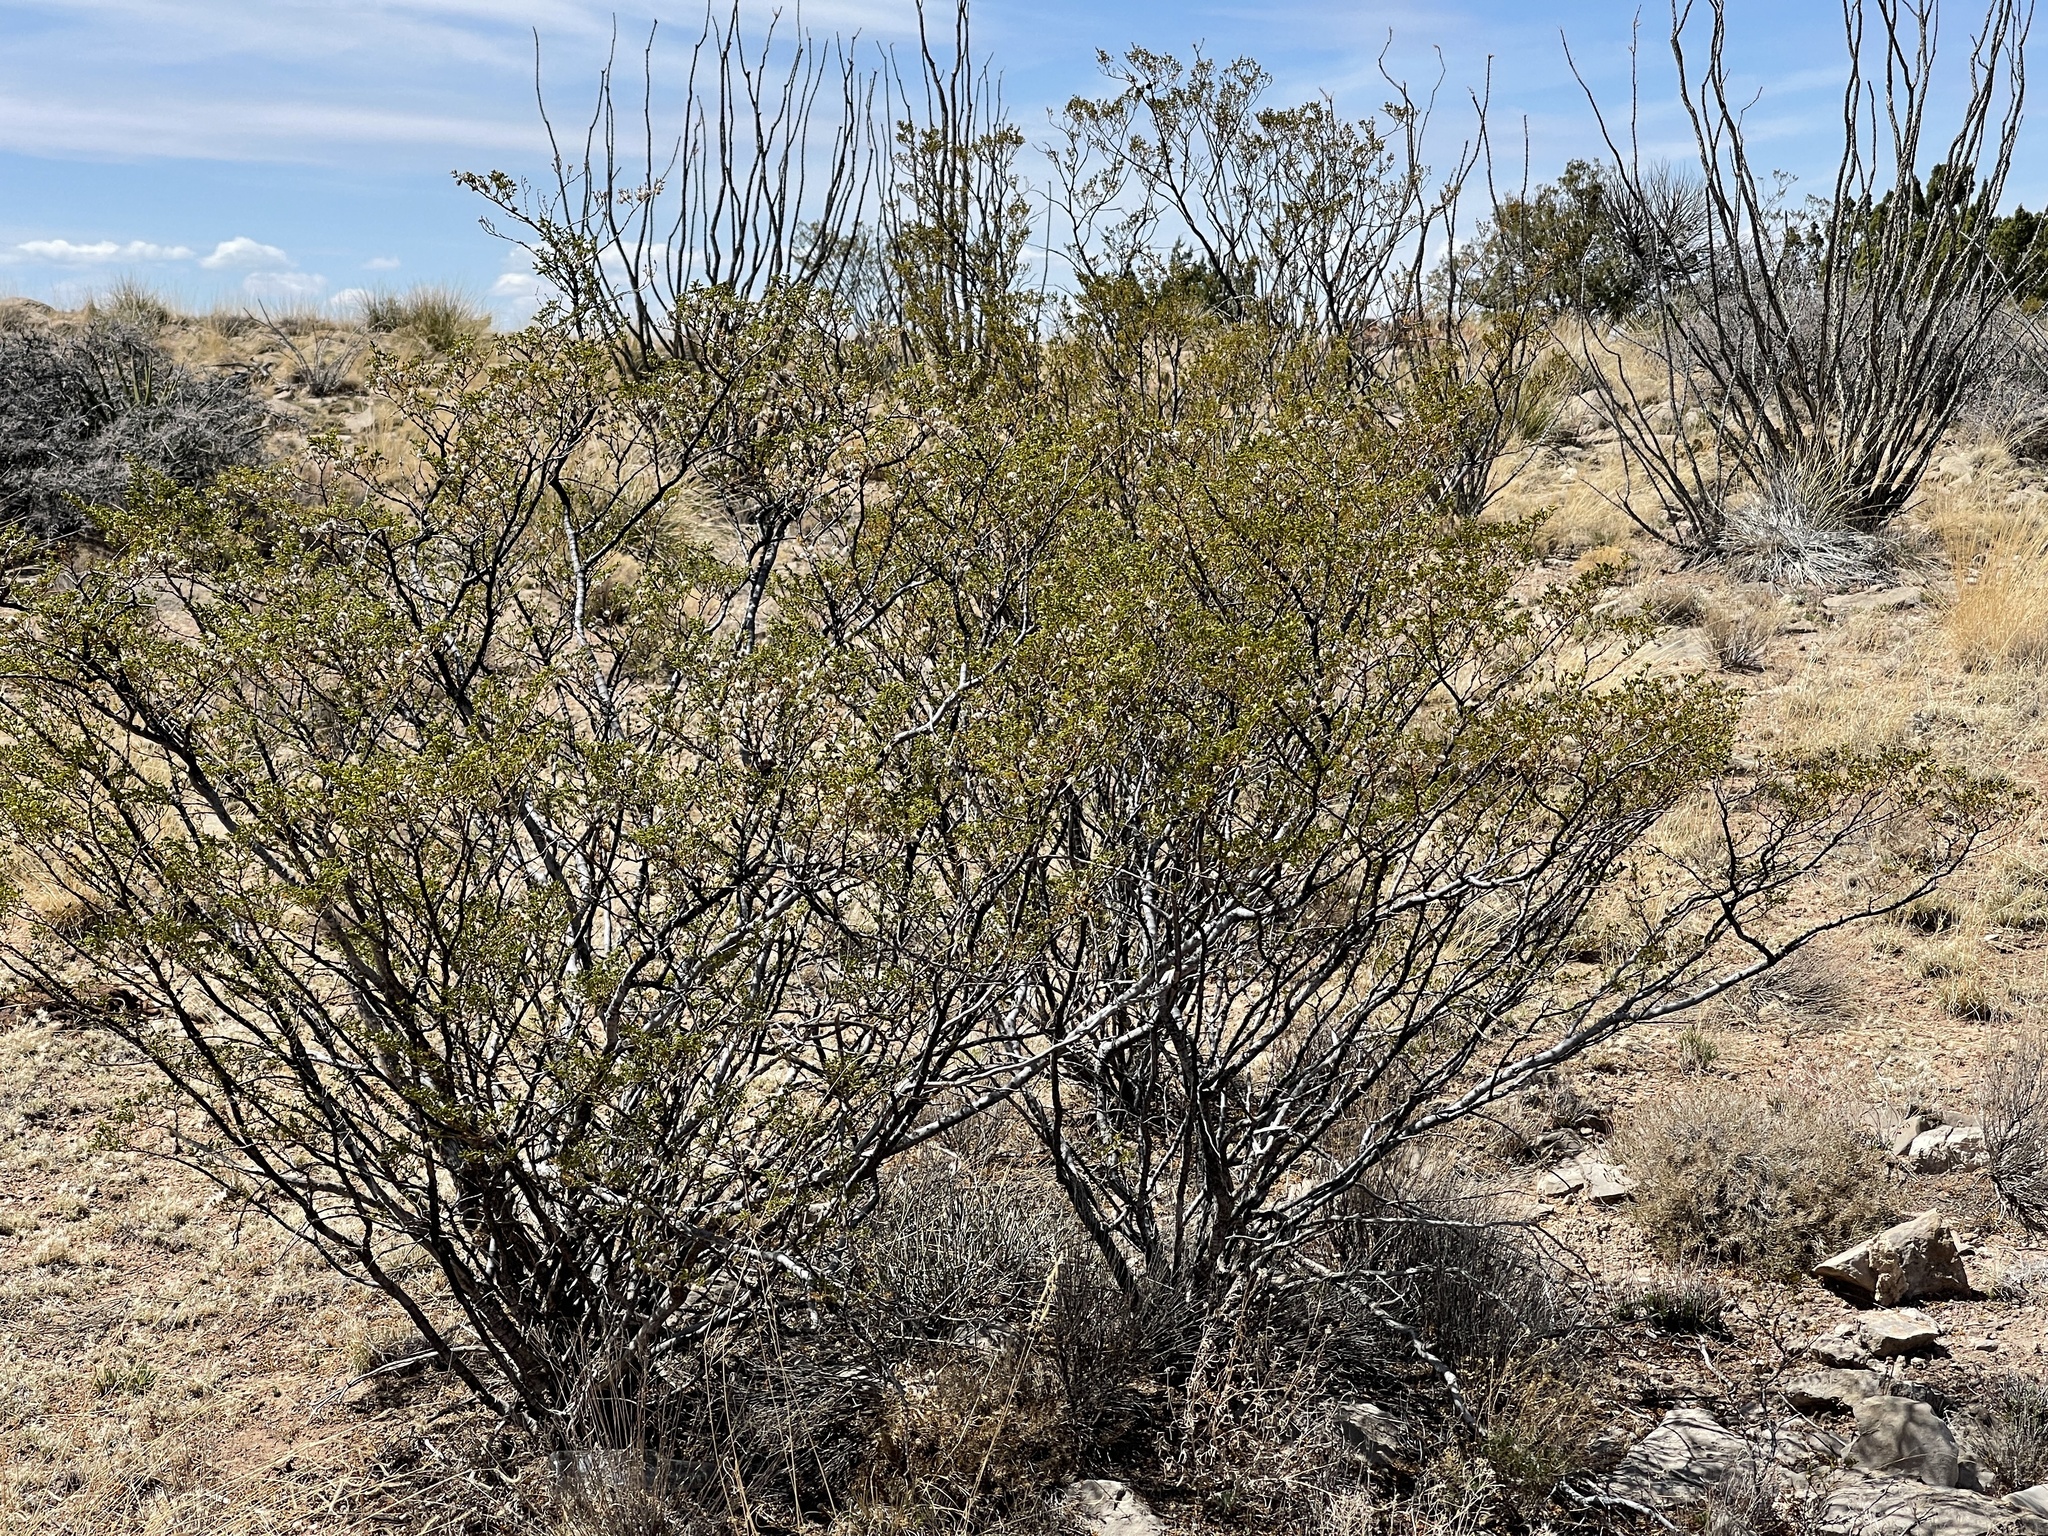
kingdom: Plantae
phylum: Tracheophyta
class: Magnoliopsida
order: Zygophyllales
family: Zygophyllaceae
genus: Larrea
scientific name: Larrea tridentata
